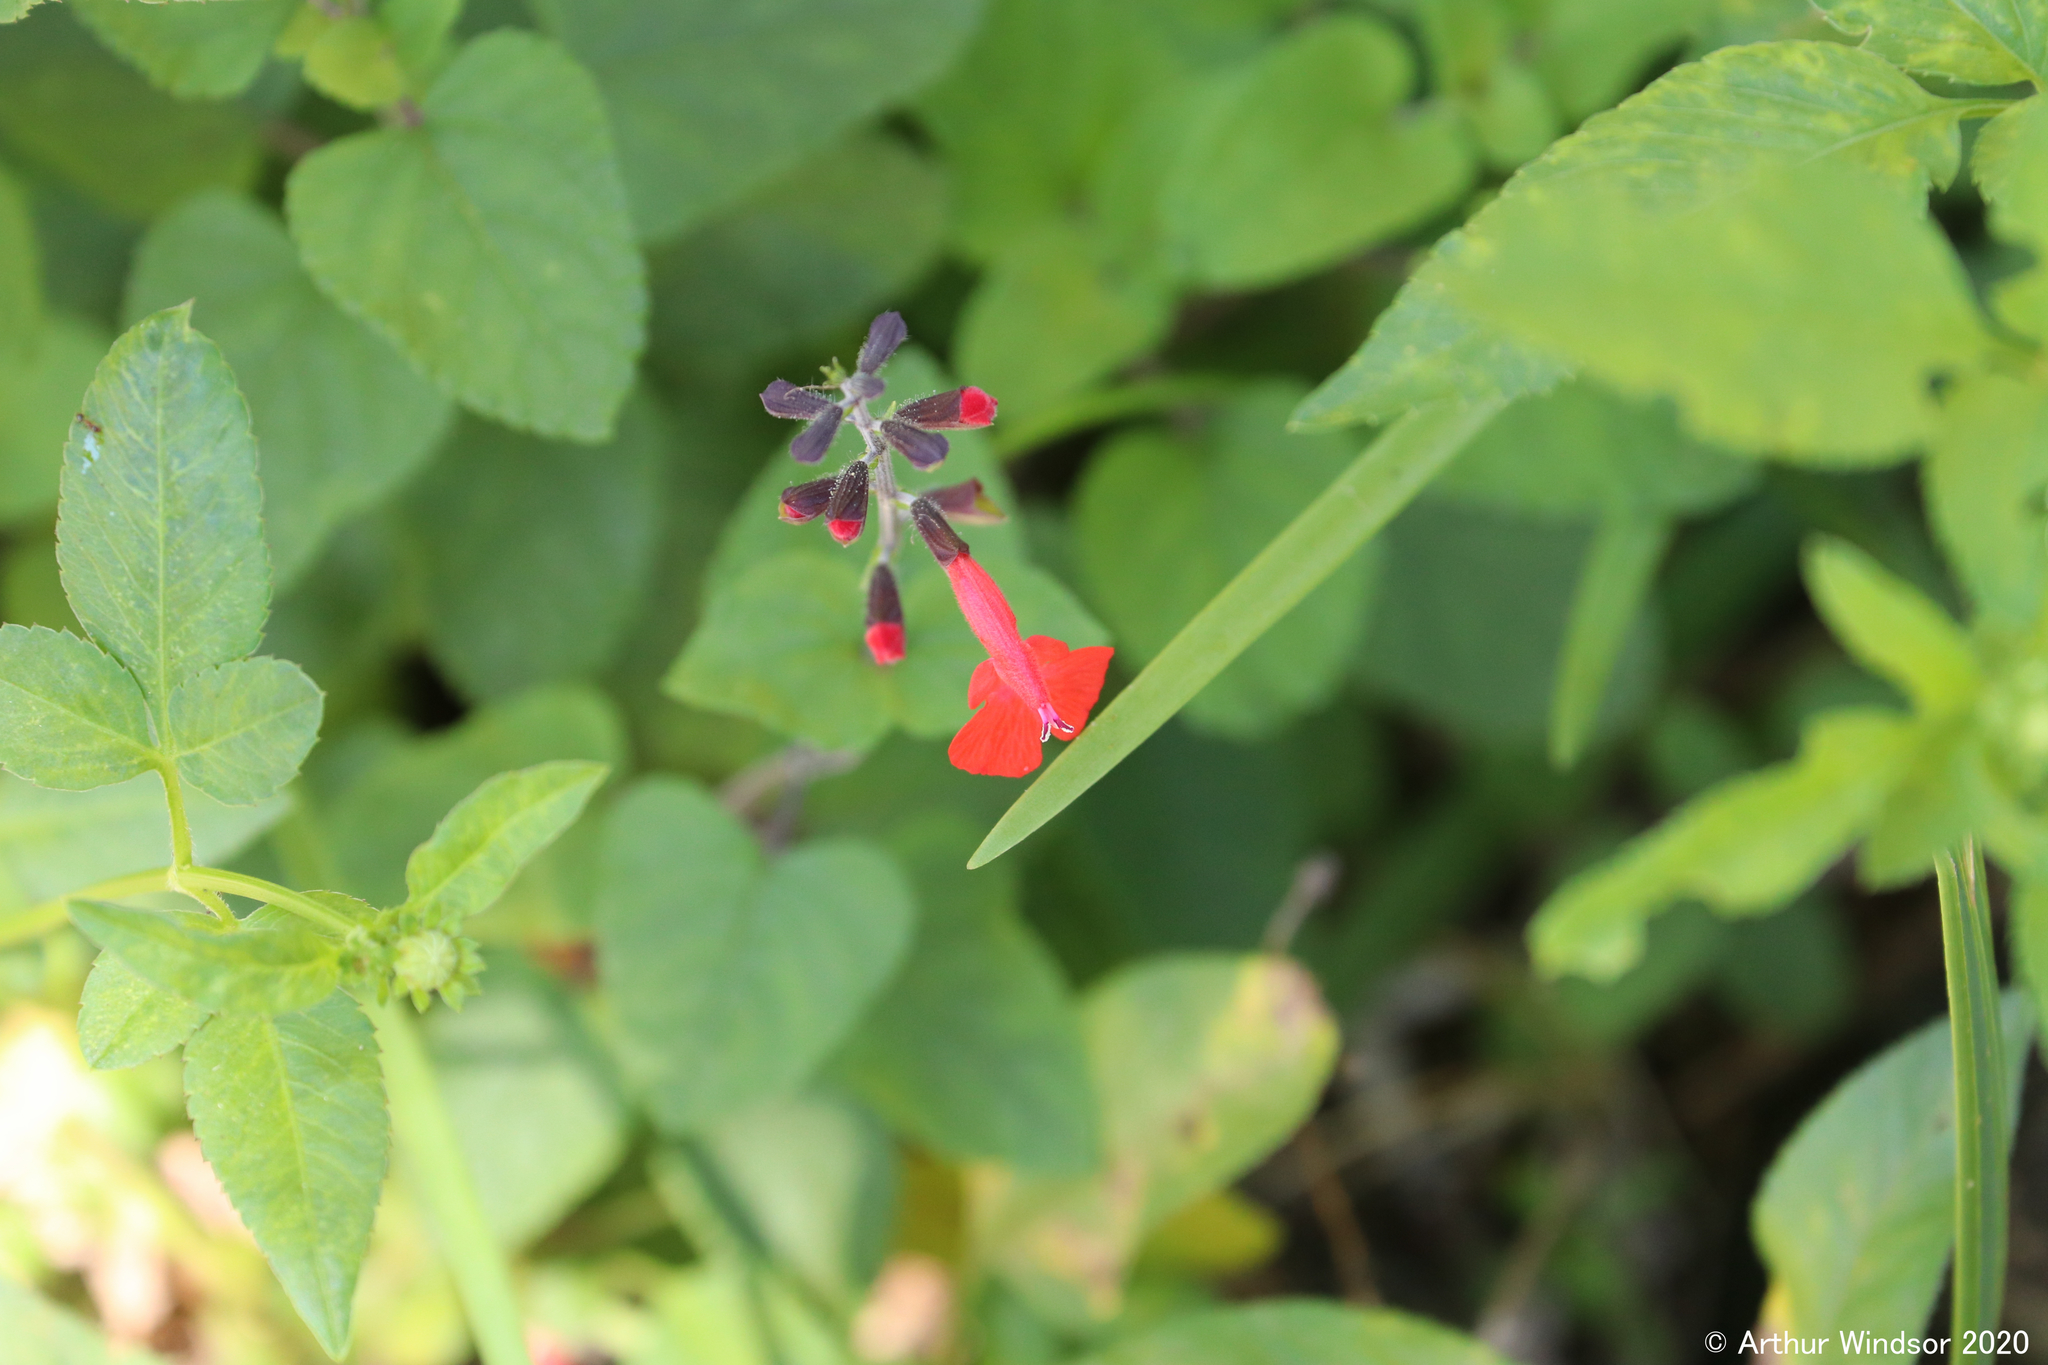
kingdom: Plantae
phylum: Tracheophyta
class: Magnoliopsida
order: Lamiales
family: Lamiaceae
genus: Salvia
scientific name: Salvia coccinea
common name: Blood sage
